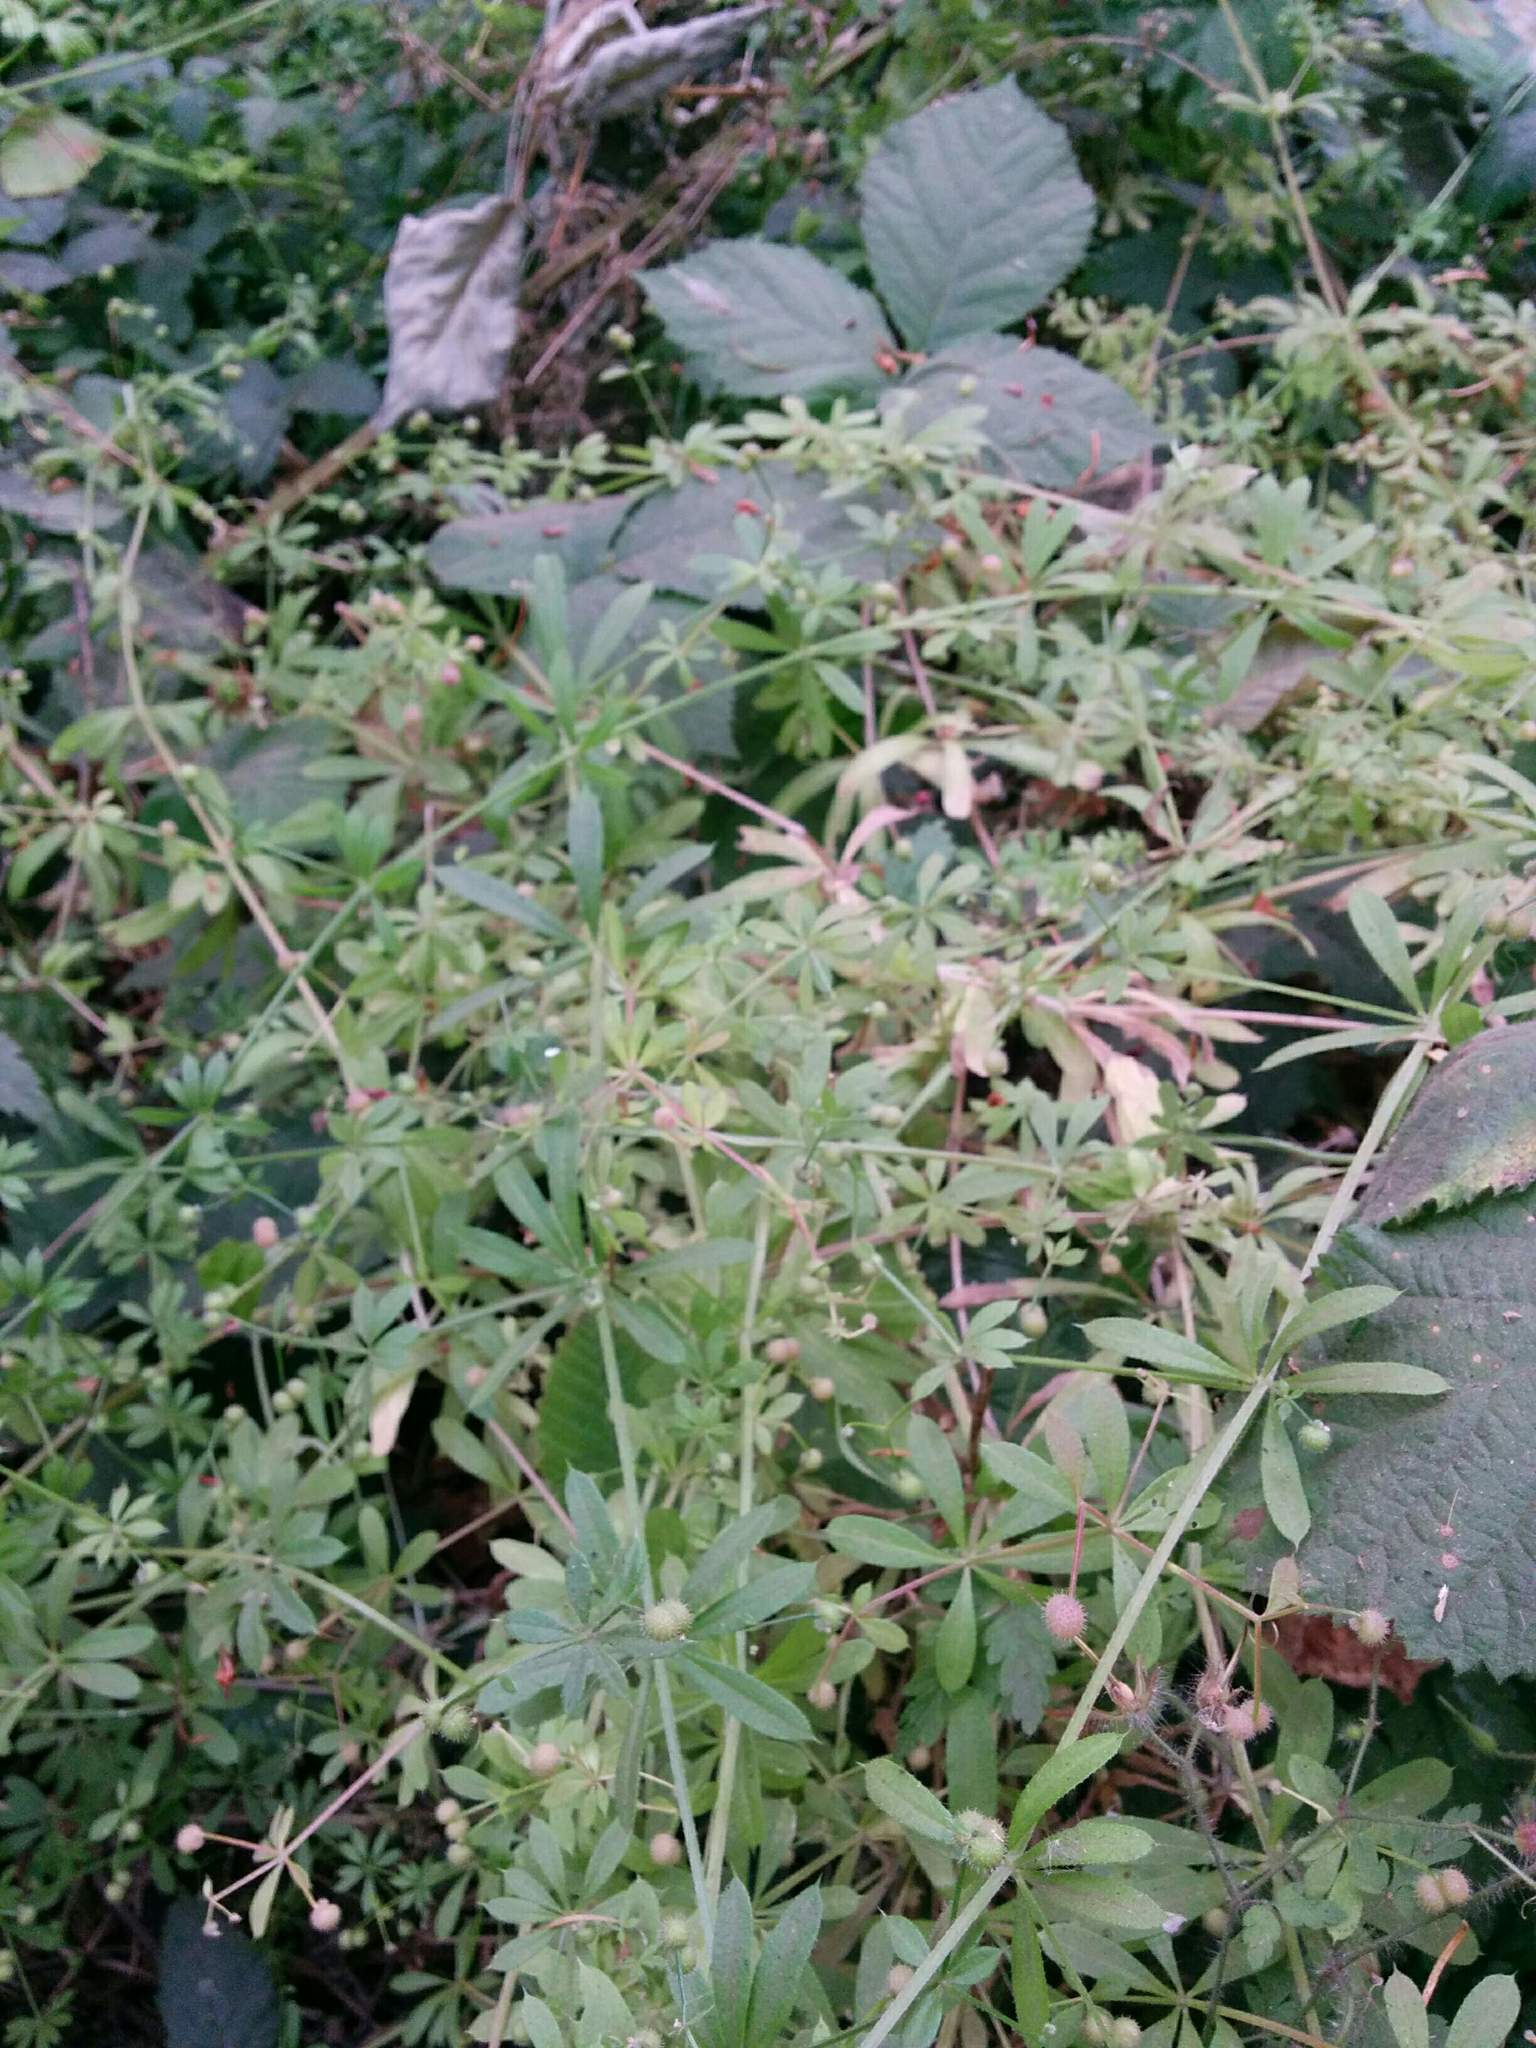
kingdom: Plantae
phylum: Tracheophyta
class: Magnoliopsida
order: Gentianales
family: Rubiaceae
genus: Galium
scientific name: Galium aparine
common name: Cleavers
